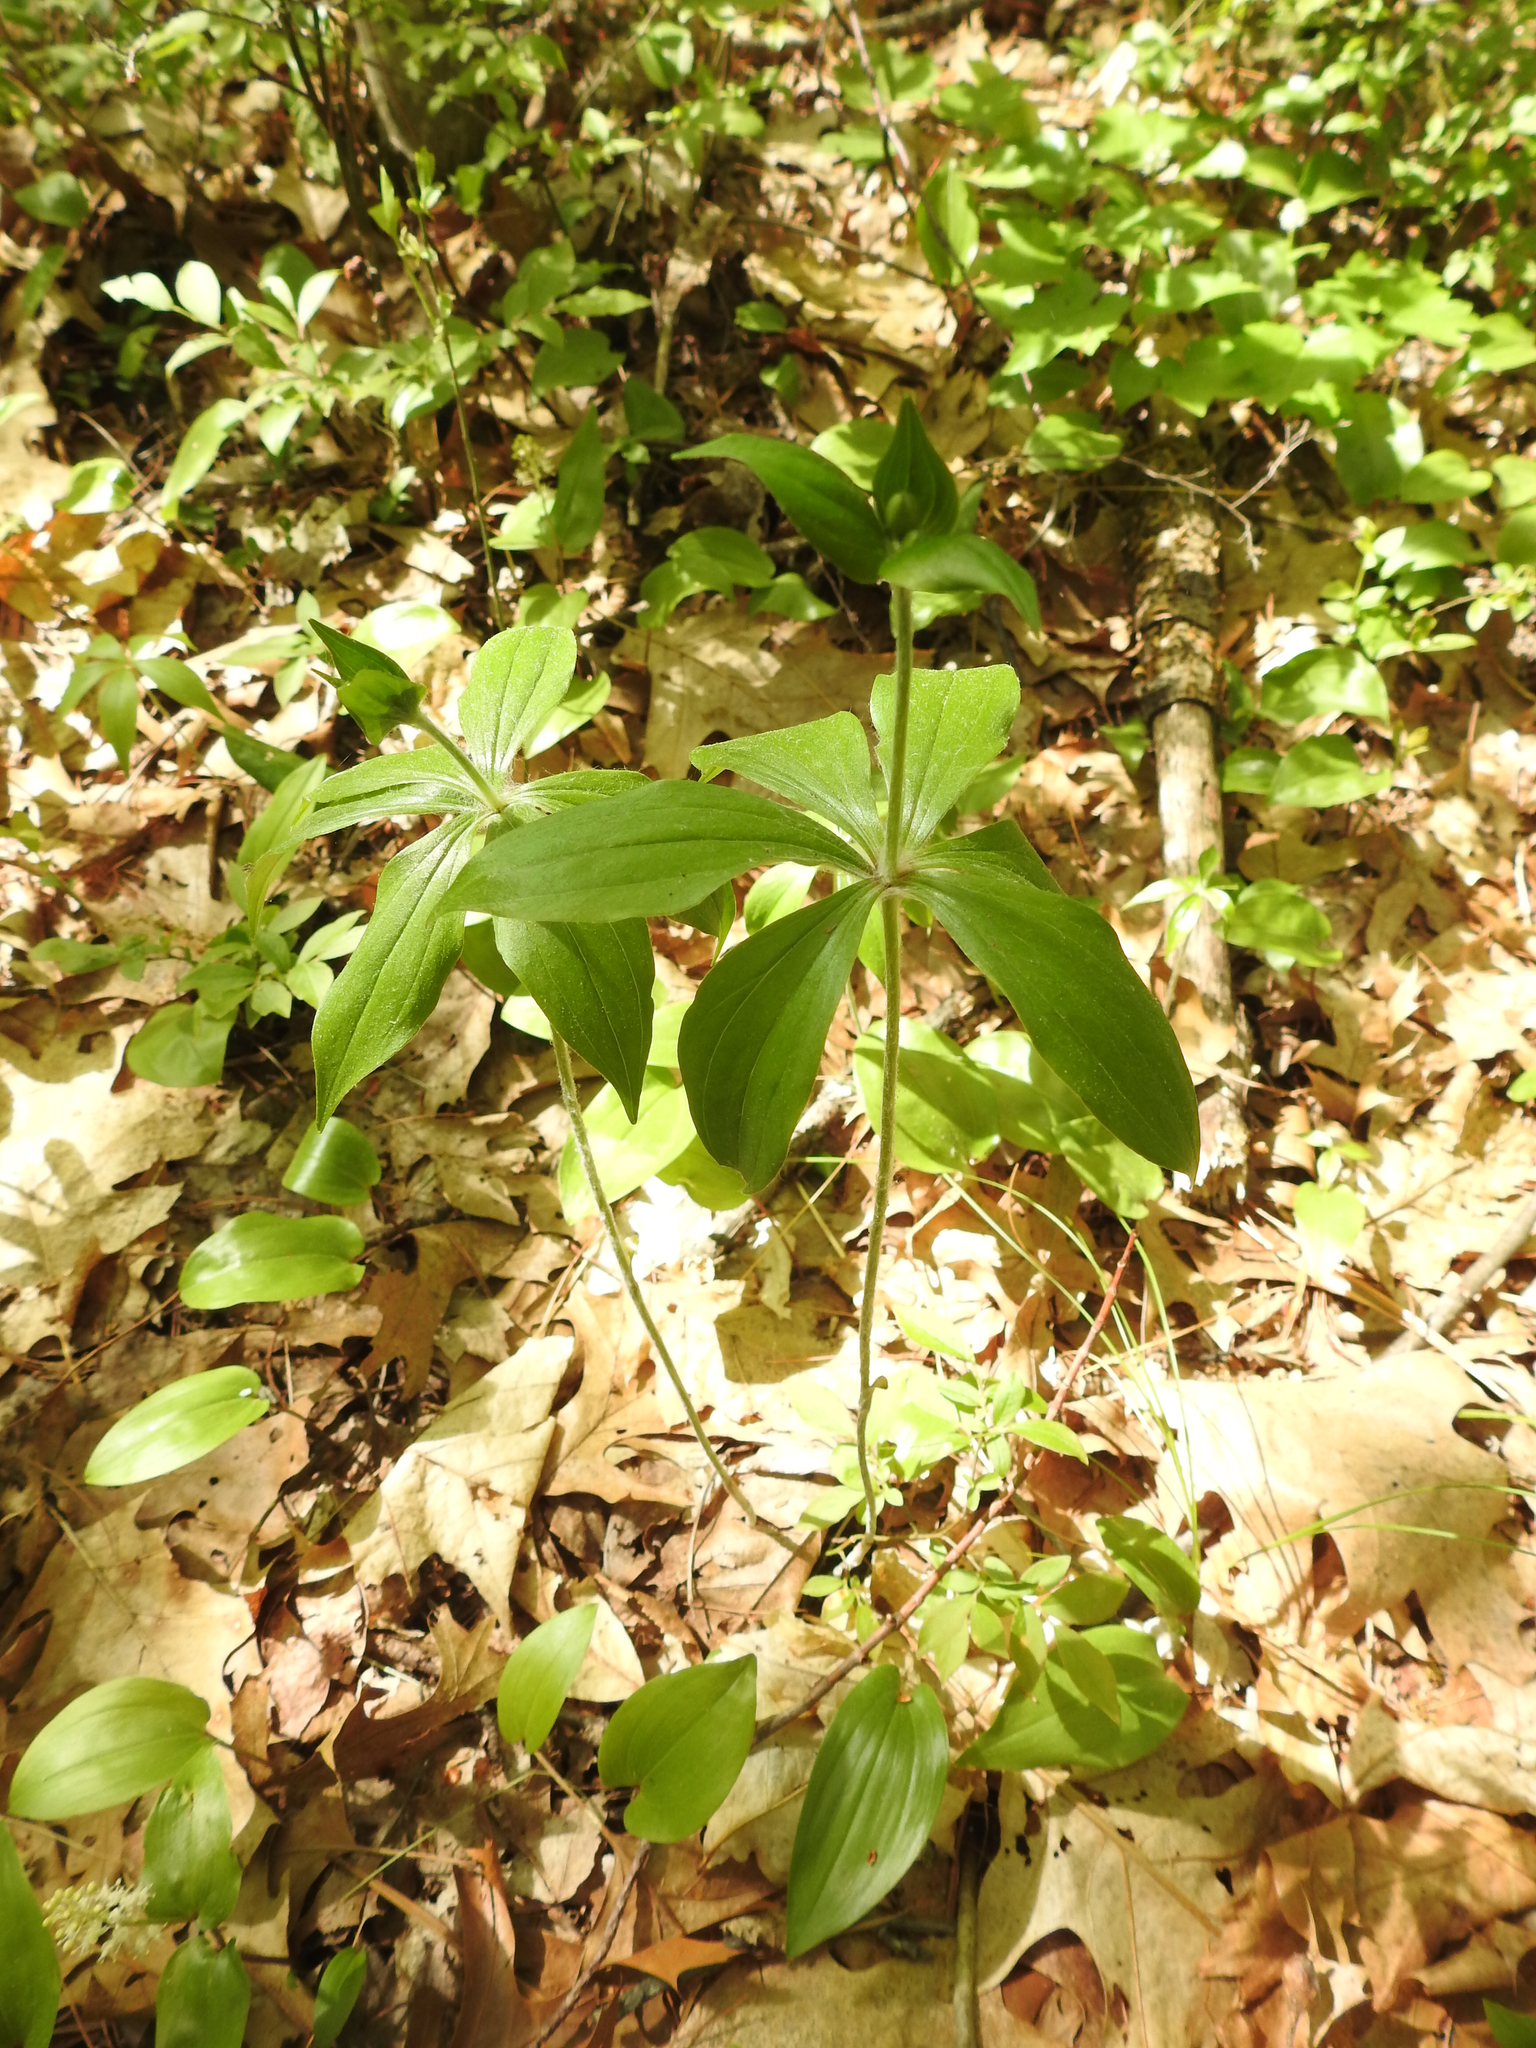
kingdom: Plantae
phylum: Tracheophyta
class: Liliopsida
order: Liliales
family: Liliaceae
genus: Medeola
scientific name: Medeola virginiana
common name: Indian cucumber-root
